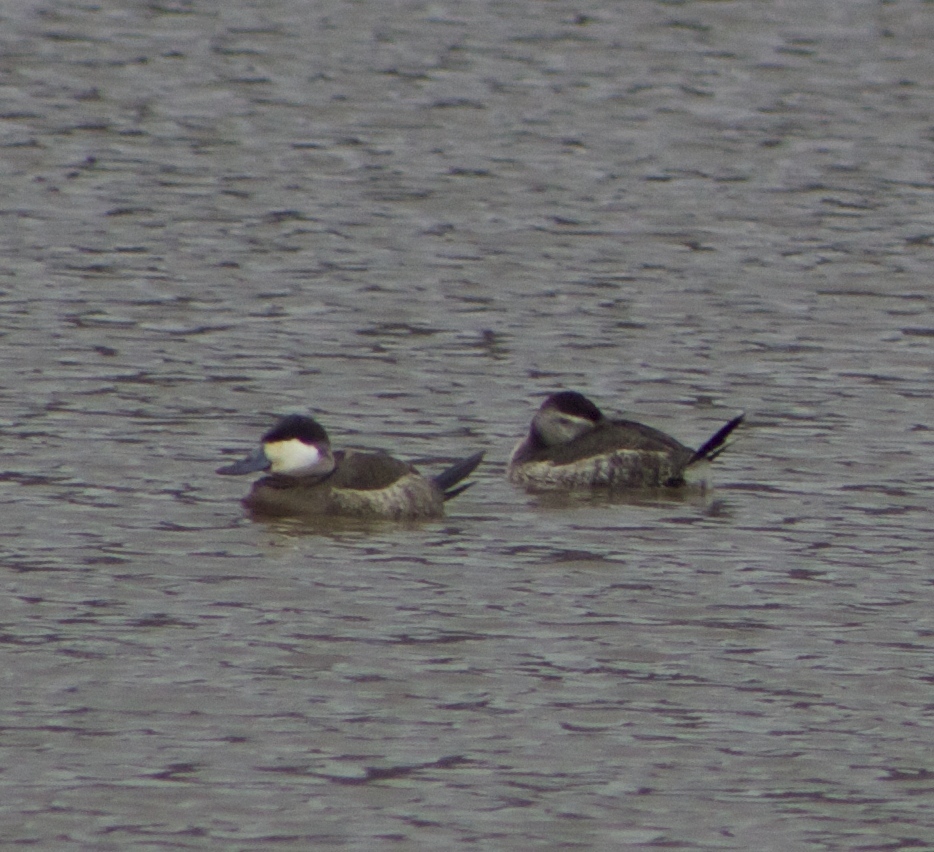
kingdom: Animalia
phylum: Chordata
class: Aves
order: Anseriformes
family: Anatidae
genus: Oxyura
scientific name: Oxyura jamaicensis
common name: Ruddy duck
